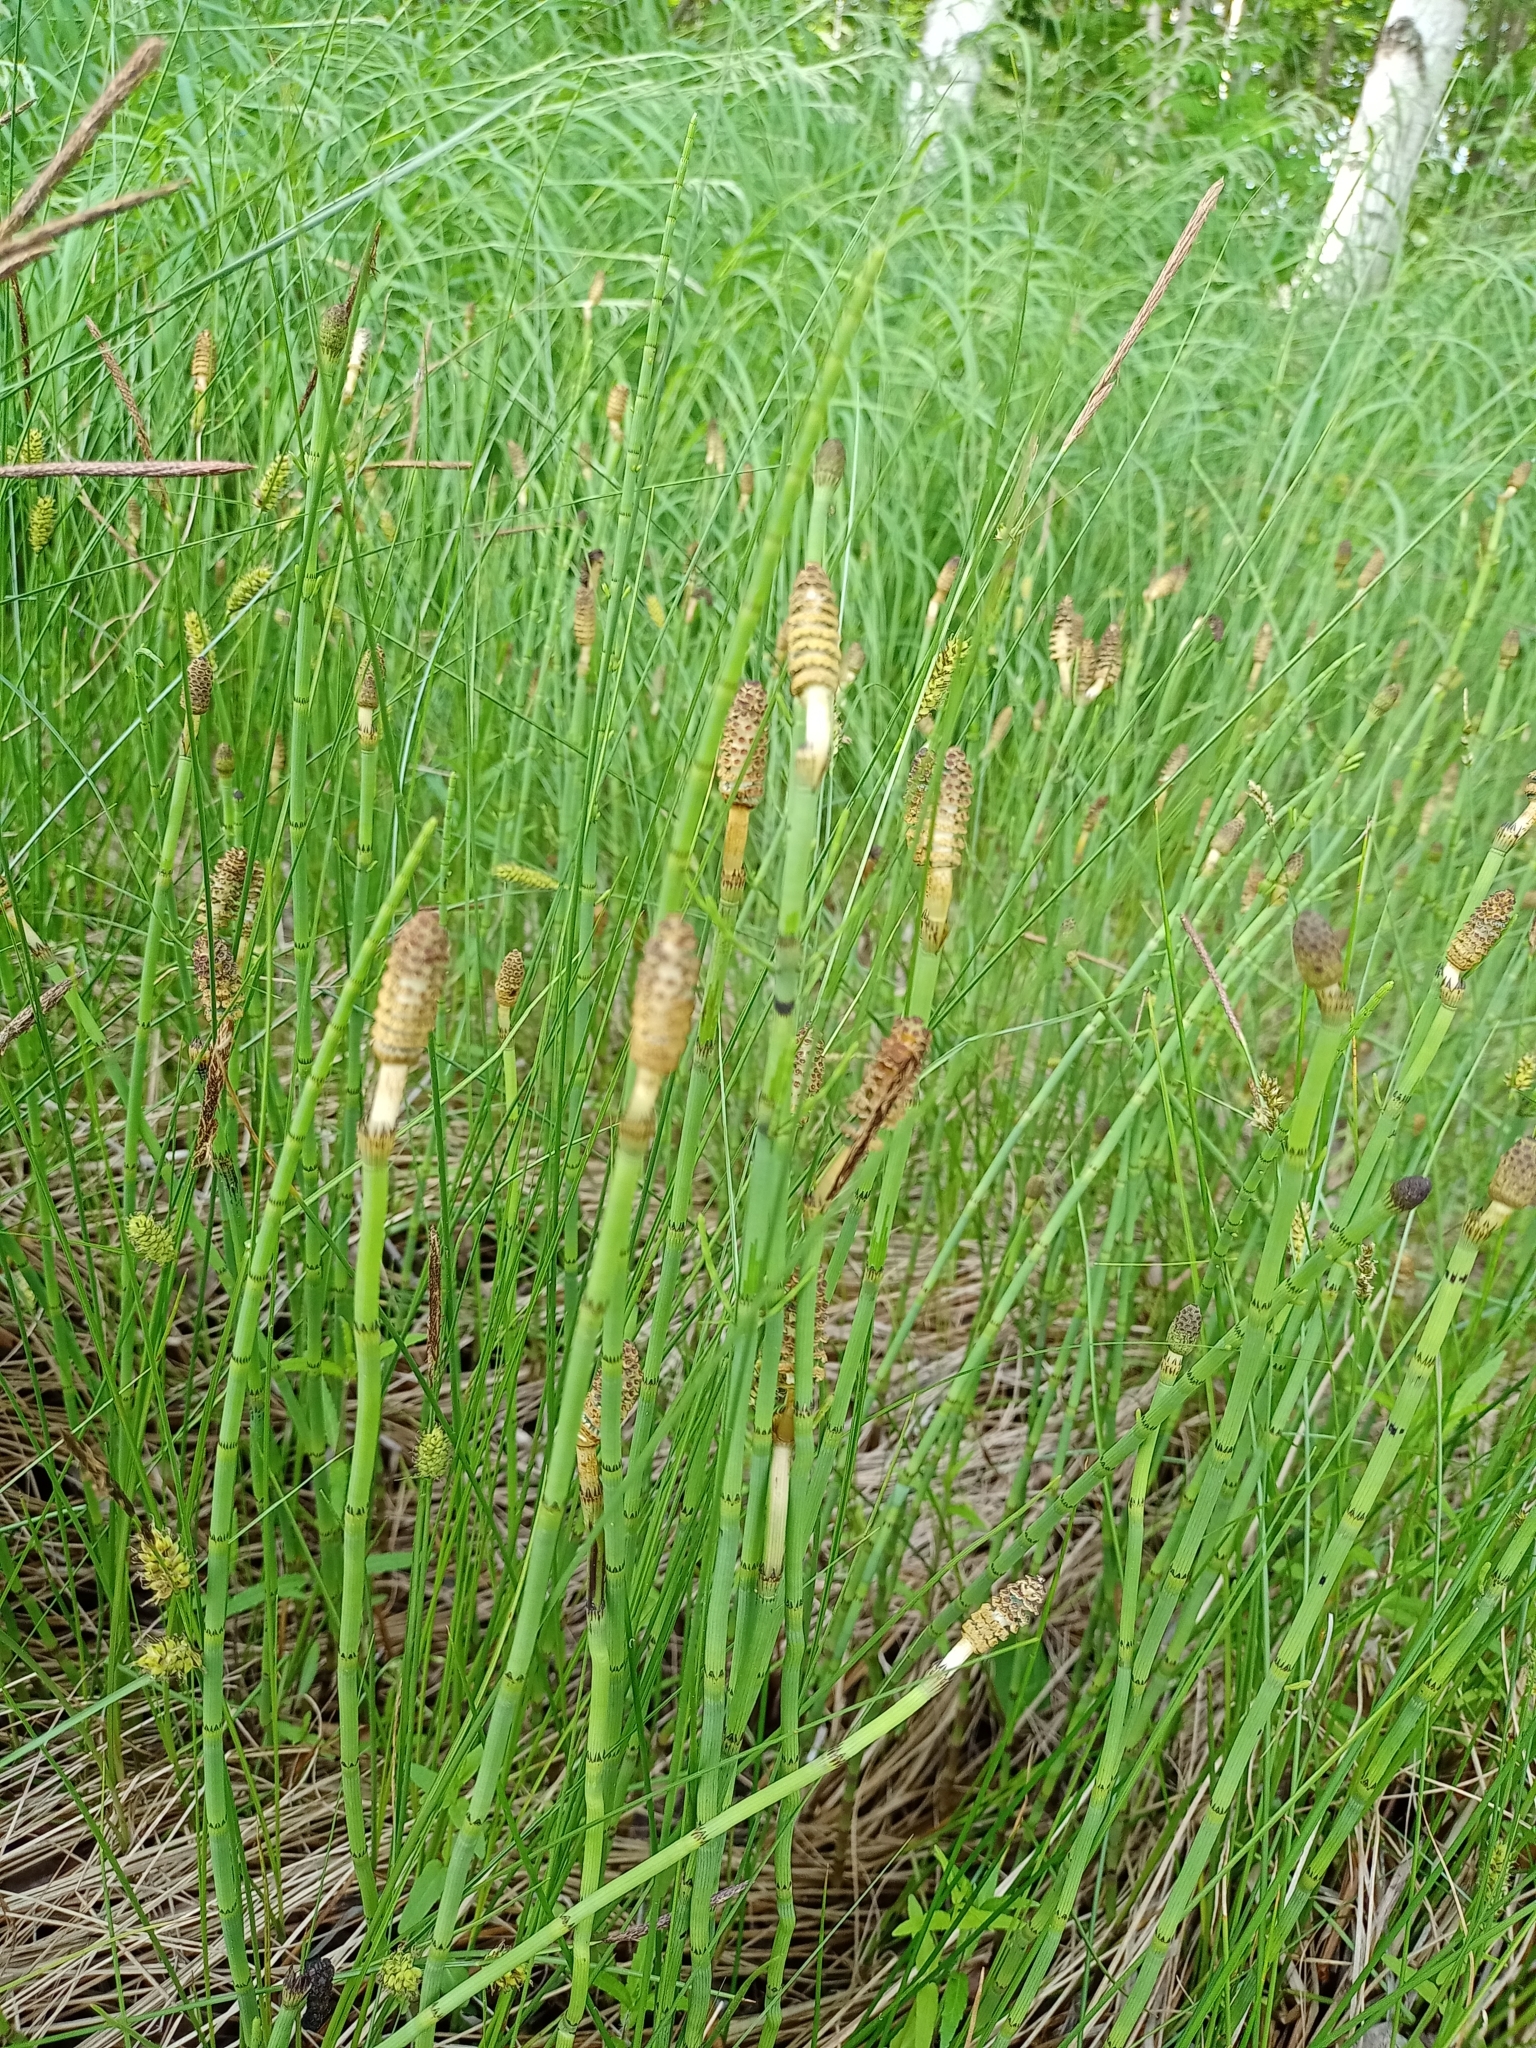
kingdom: Plantae
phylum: Tracheophyta
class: Polypodiopsida
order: Equisetales
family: Equisetaceae
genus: Equisetum
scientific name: Equisetum fluviatile
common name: Water horsetail
